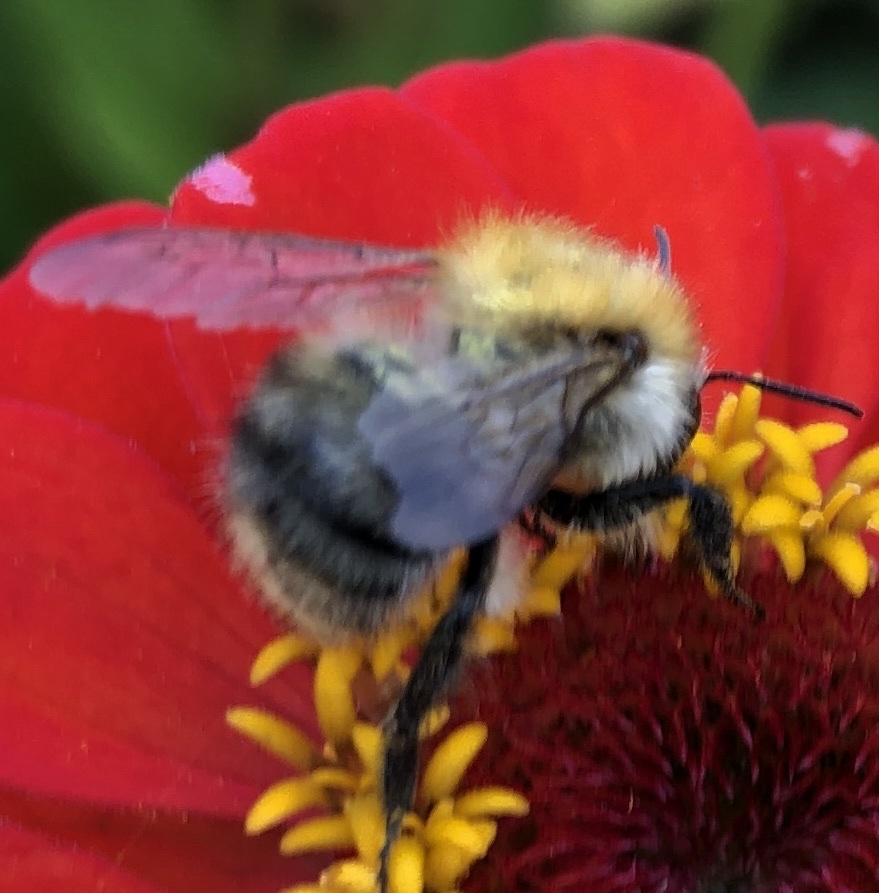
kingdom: Animalia
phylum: Arthropoda
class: Insecta
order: Hymenoptera
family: Apidae
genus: Bombus
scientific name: Bombus pascuorum
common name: Common carder bee
